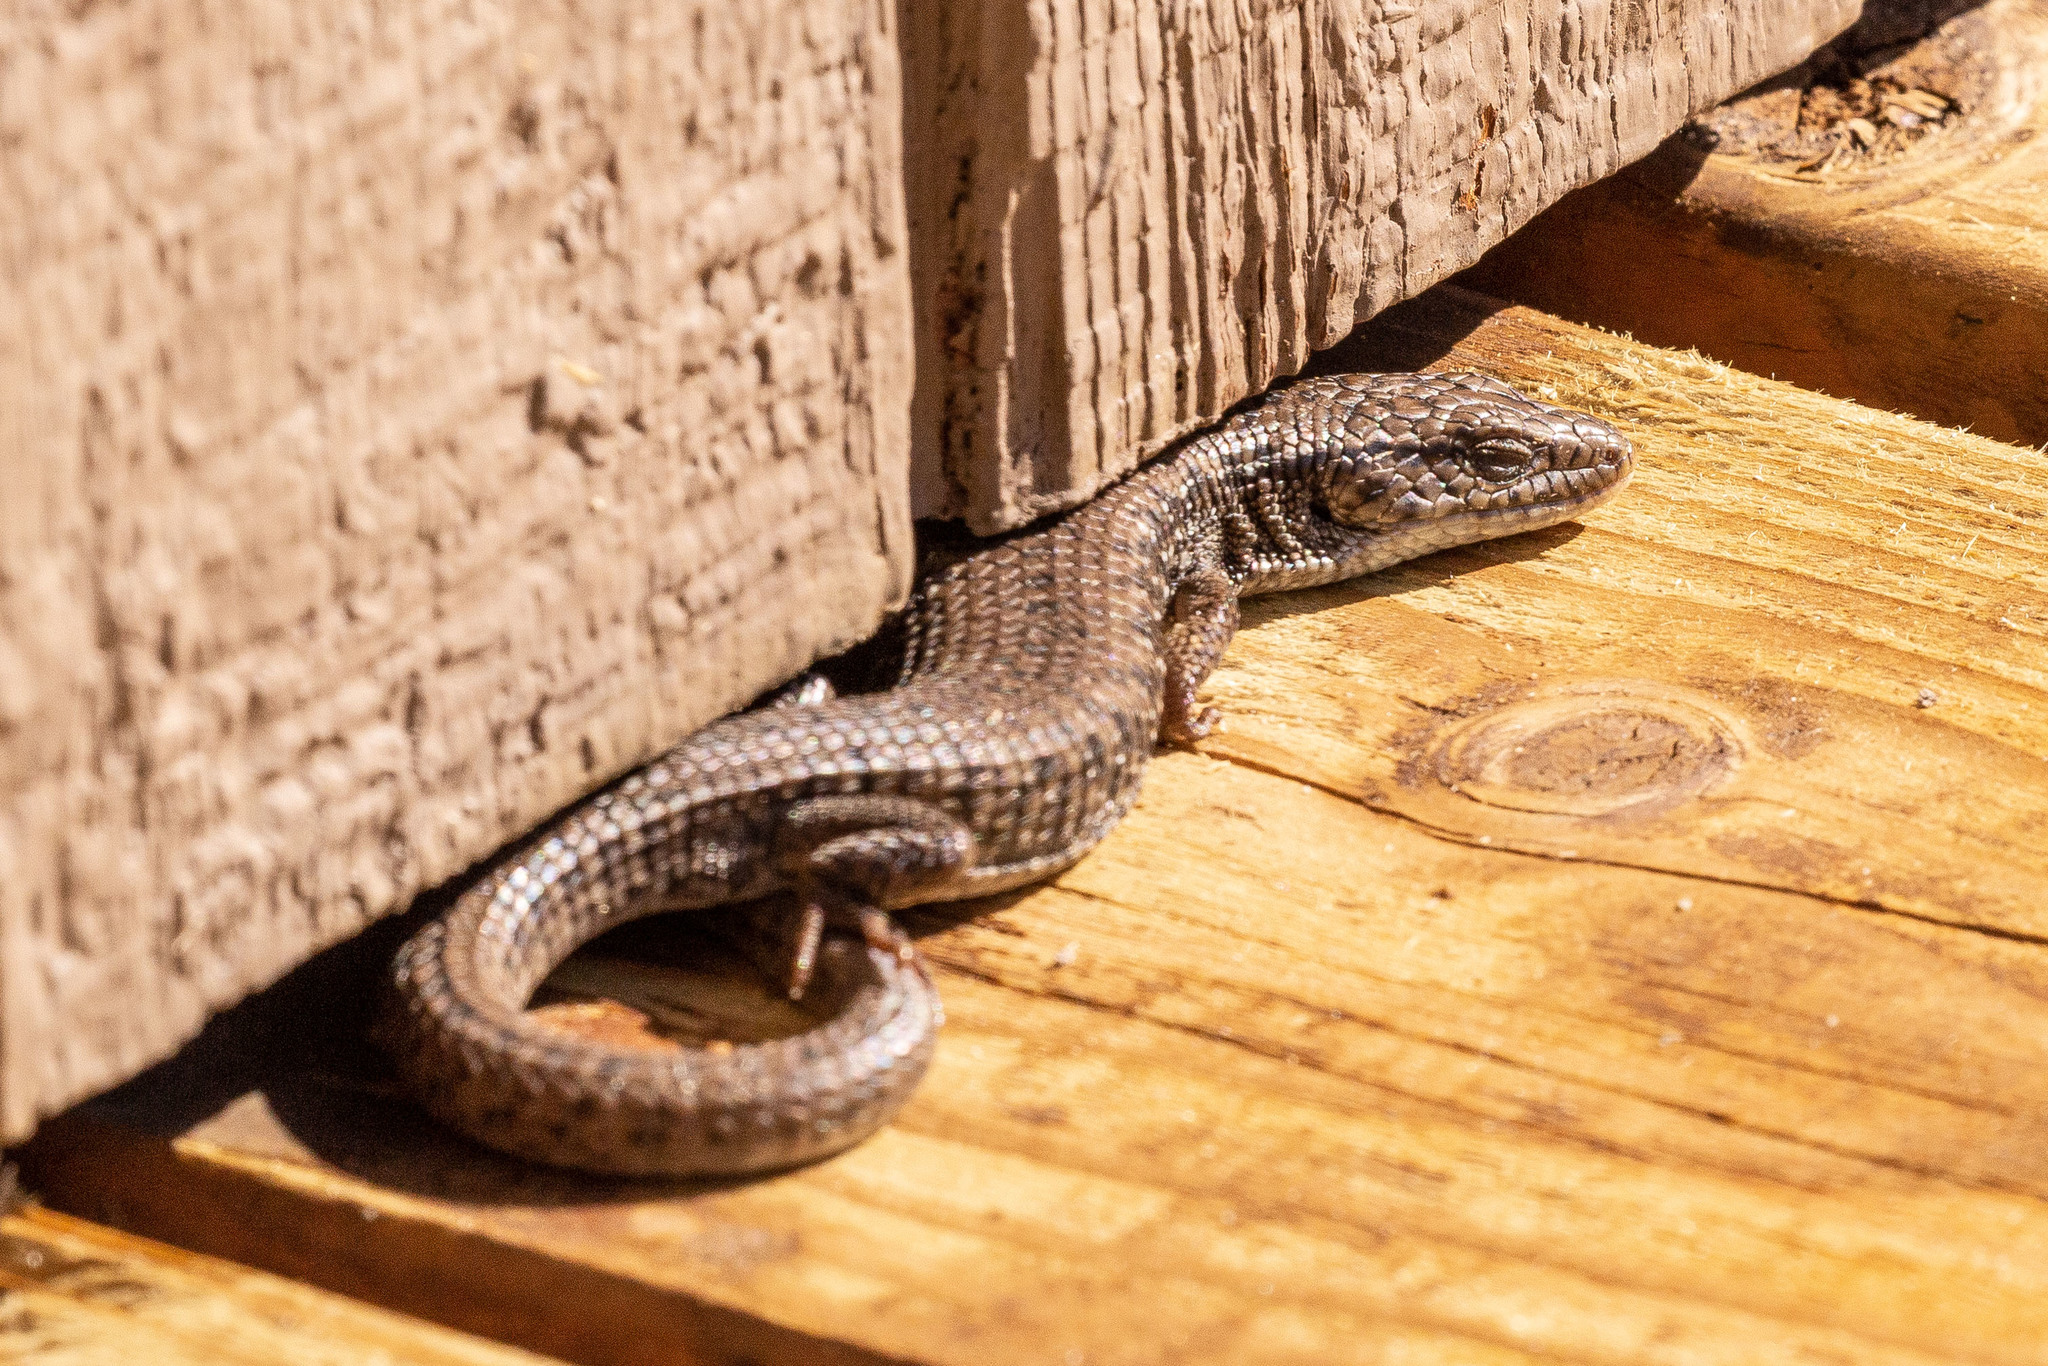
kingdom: Animalia
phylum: Chordata
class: Squamata
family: Anguidae
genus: Elgaria
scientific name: Elgaria coerulea
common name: Northern alligator lizard
